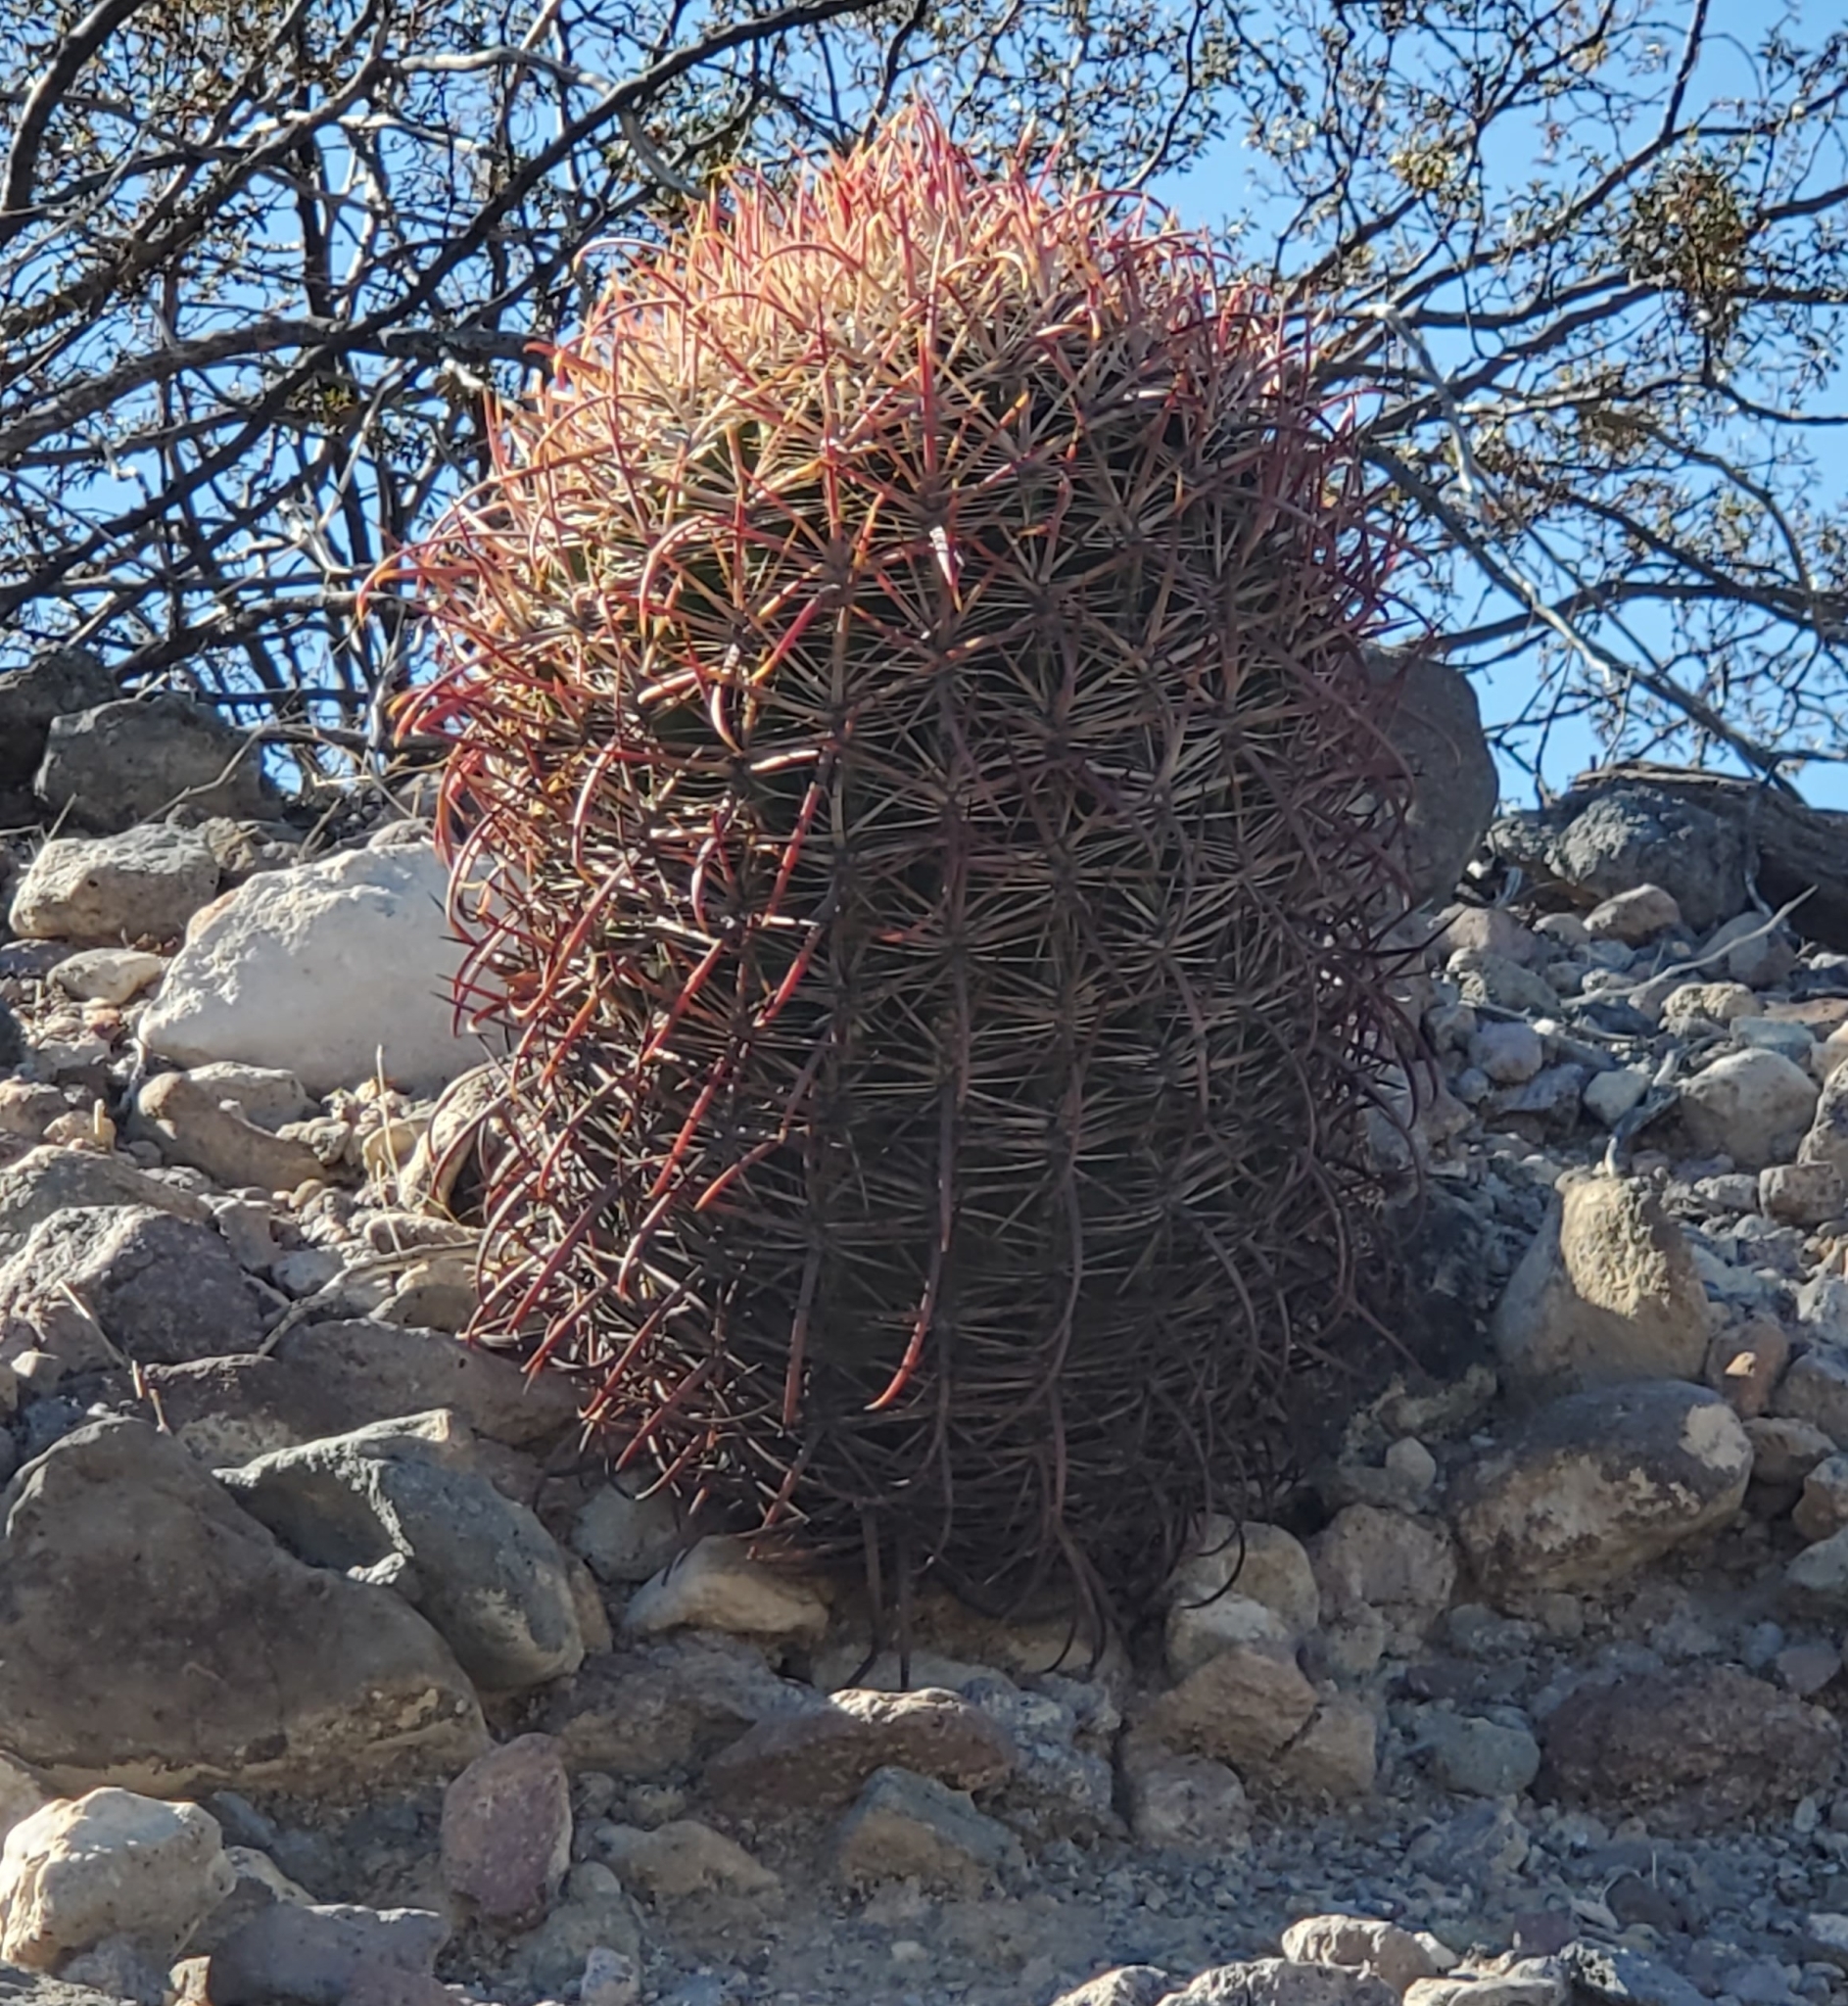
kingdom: Plantae
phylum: Tracheophyta
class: Magnoliopsida
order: Caryophyllales
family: Cactaceae
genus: Ferocactus
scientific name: Ferocactus cylindraceus
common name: California barrel cactus
